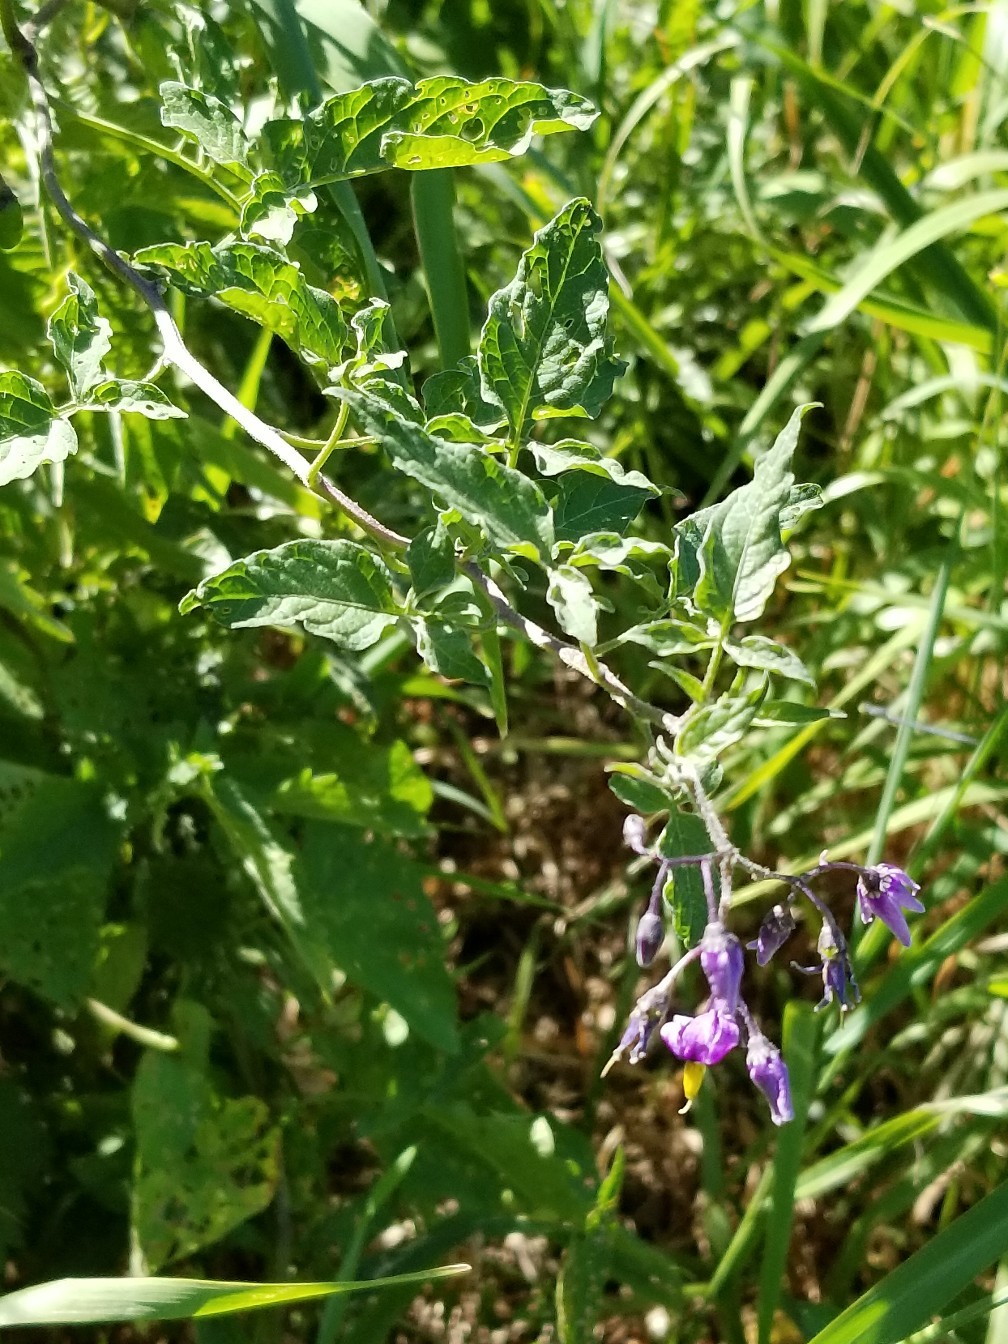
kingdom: Plantae
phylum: Tracheophyta
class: Magnoliopsida
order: Solanales
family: Solanaceae
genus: Solanum
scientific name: Solanum dulcamara
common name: Climbing nightshade
